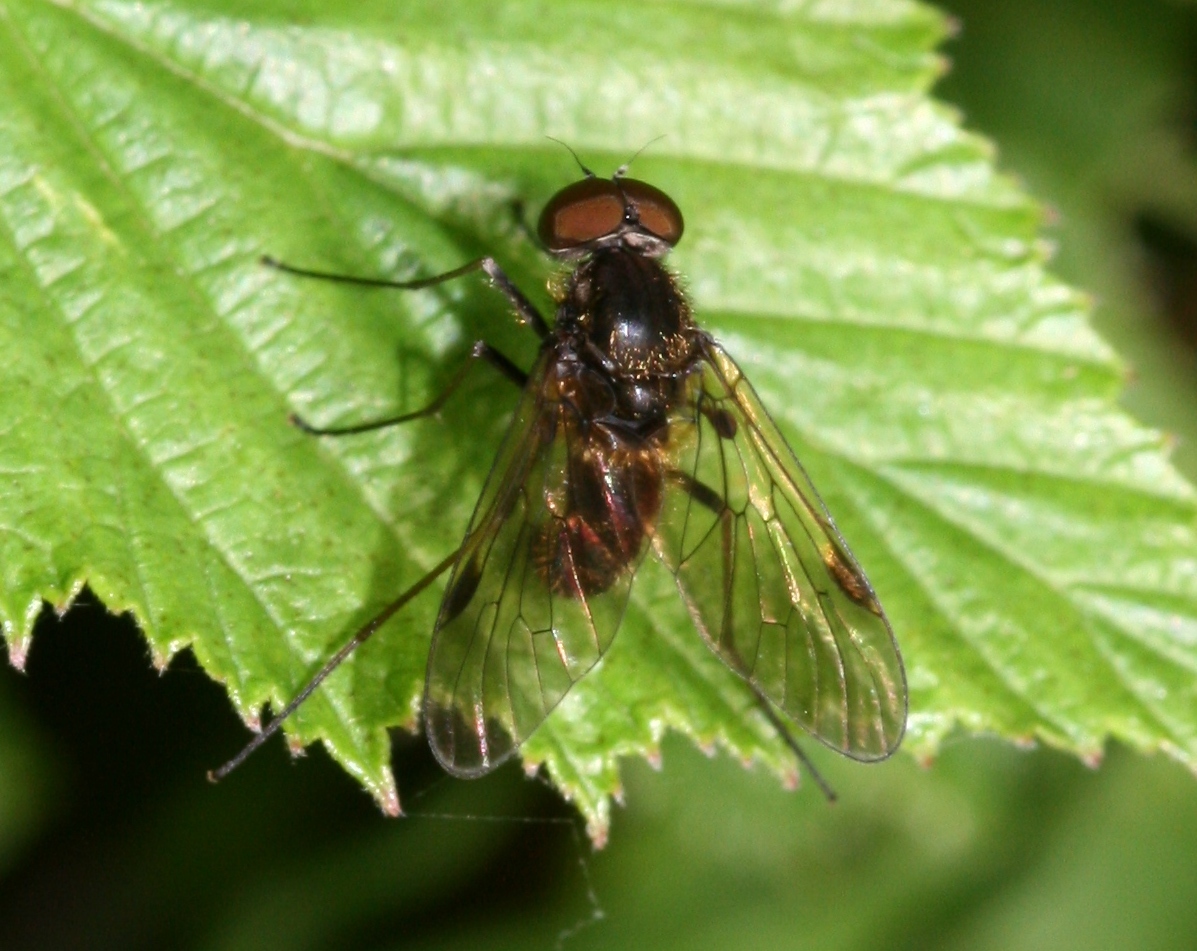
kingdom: Animalia
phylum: Arthropoda
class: Insecta
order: Diptera
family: Rhagionidae
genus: Chrysopilus
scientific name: Chrysopilus cristatus
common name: Black snipefly
